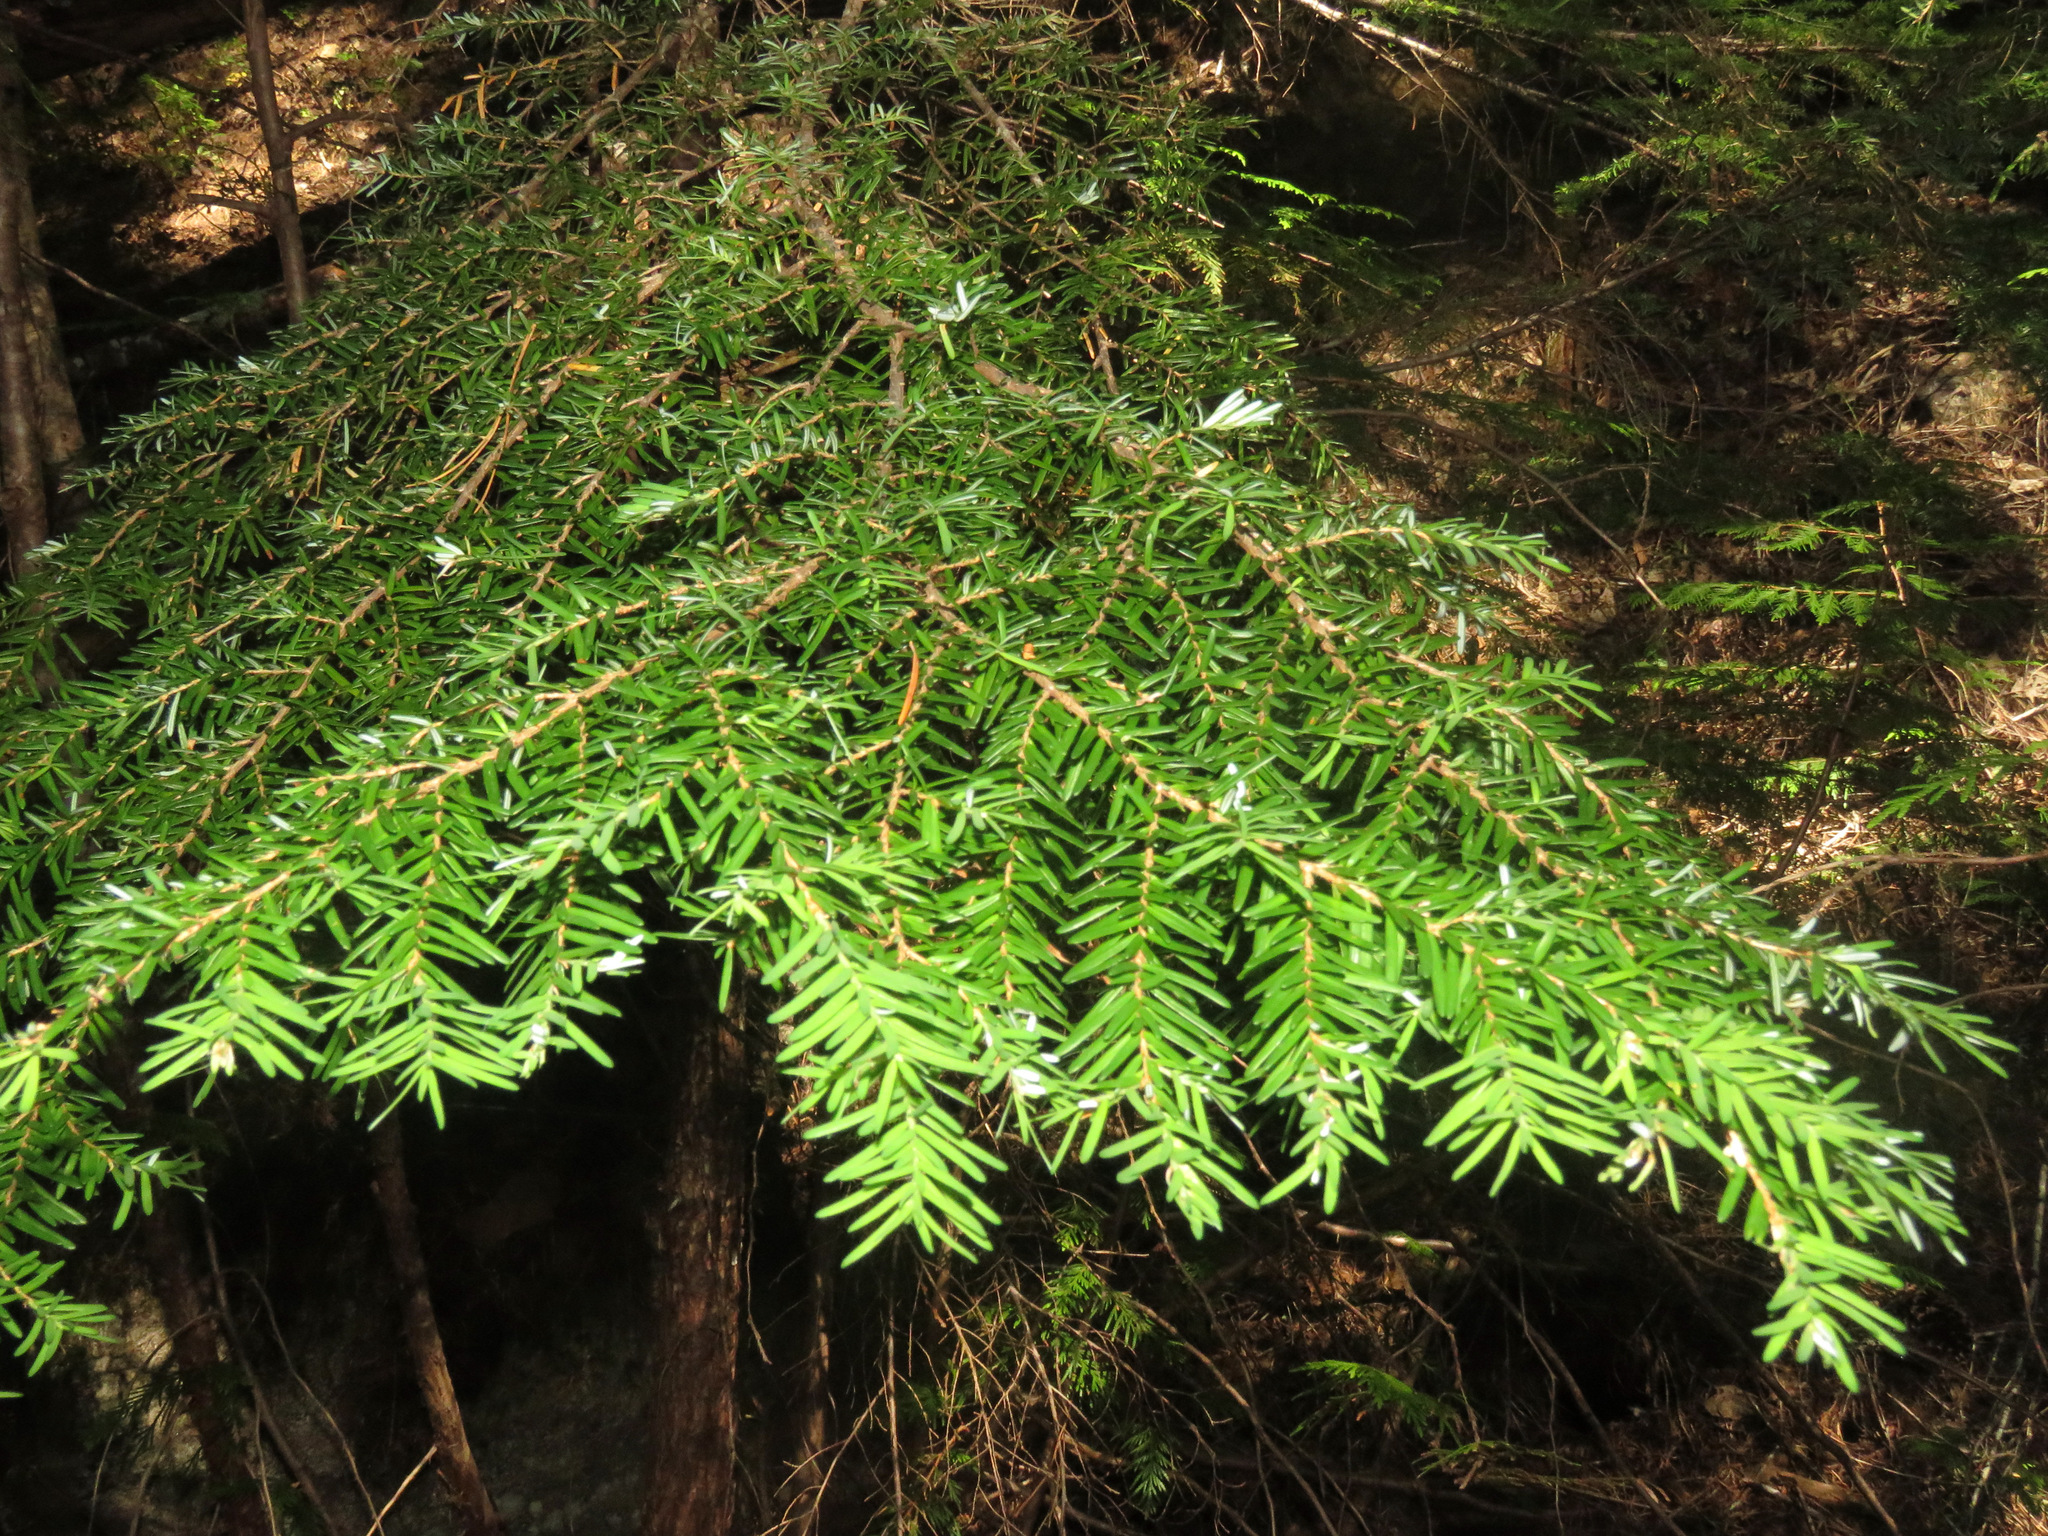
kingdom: Plantae
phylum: Tracheophyta
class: Pinopsida
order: Pinales
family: Pinaceae
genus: Tsuga
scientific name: Tsuga heterophylla
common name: Western hemlock
